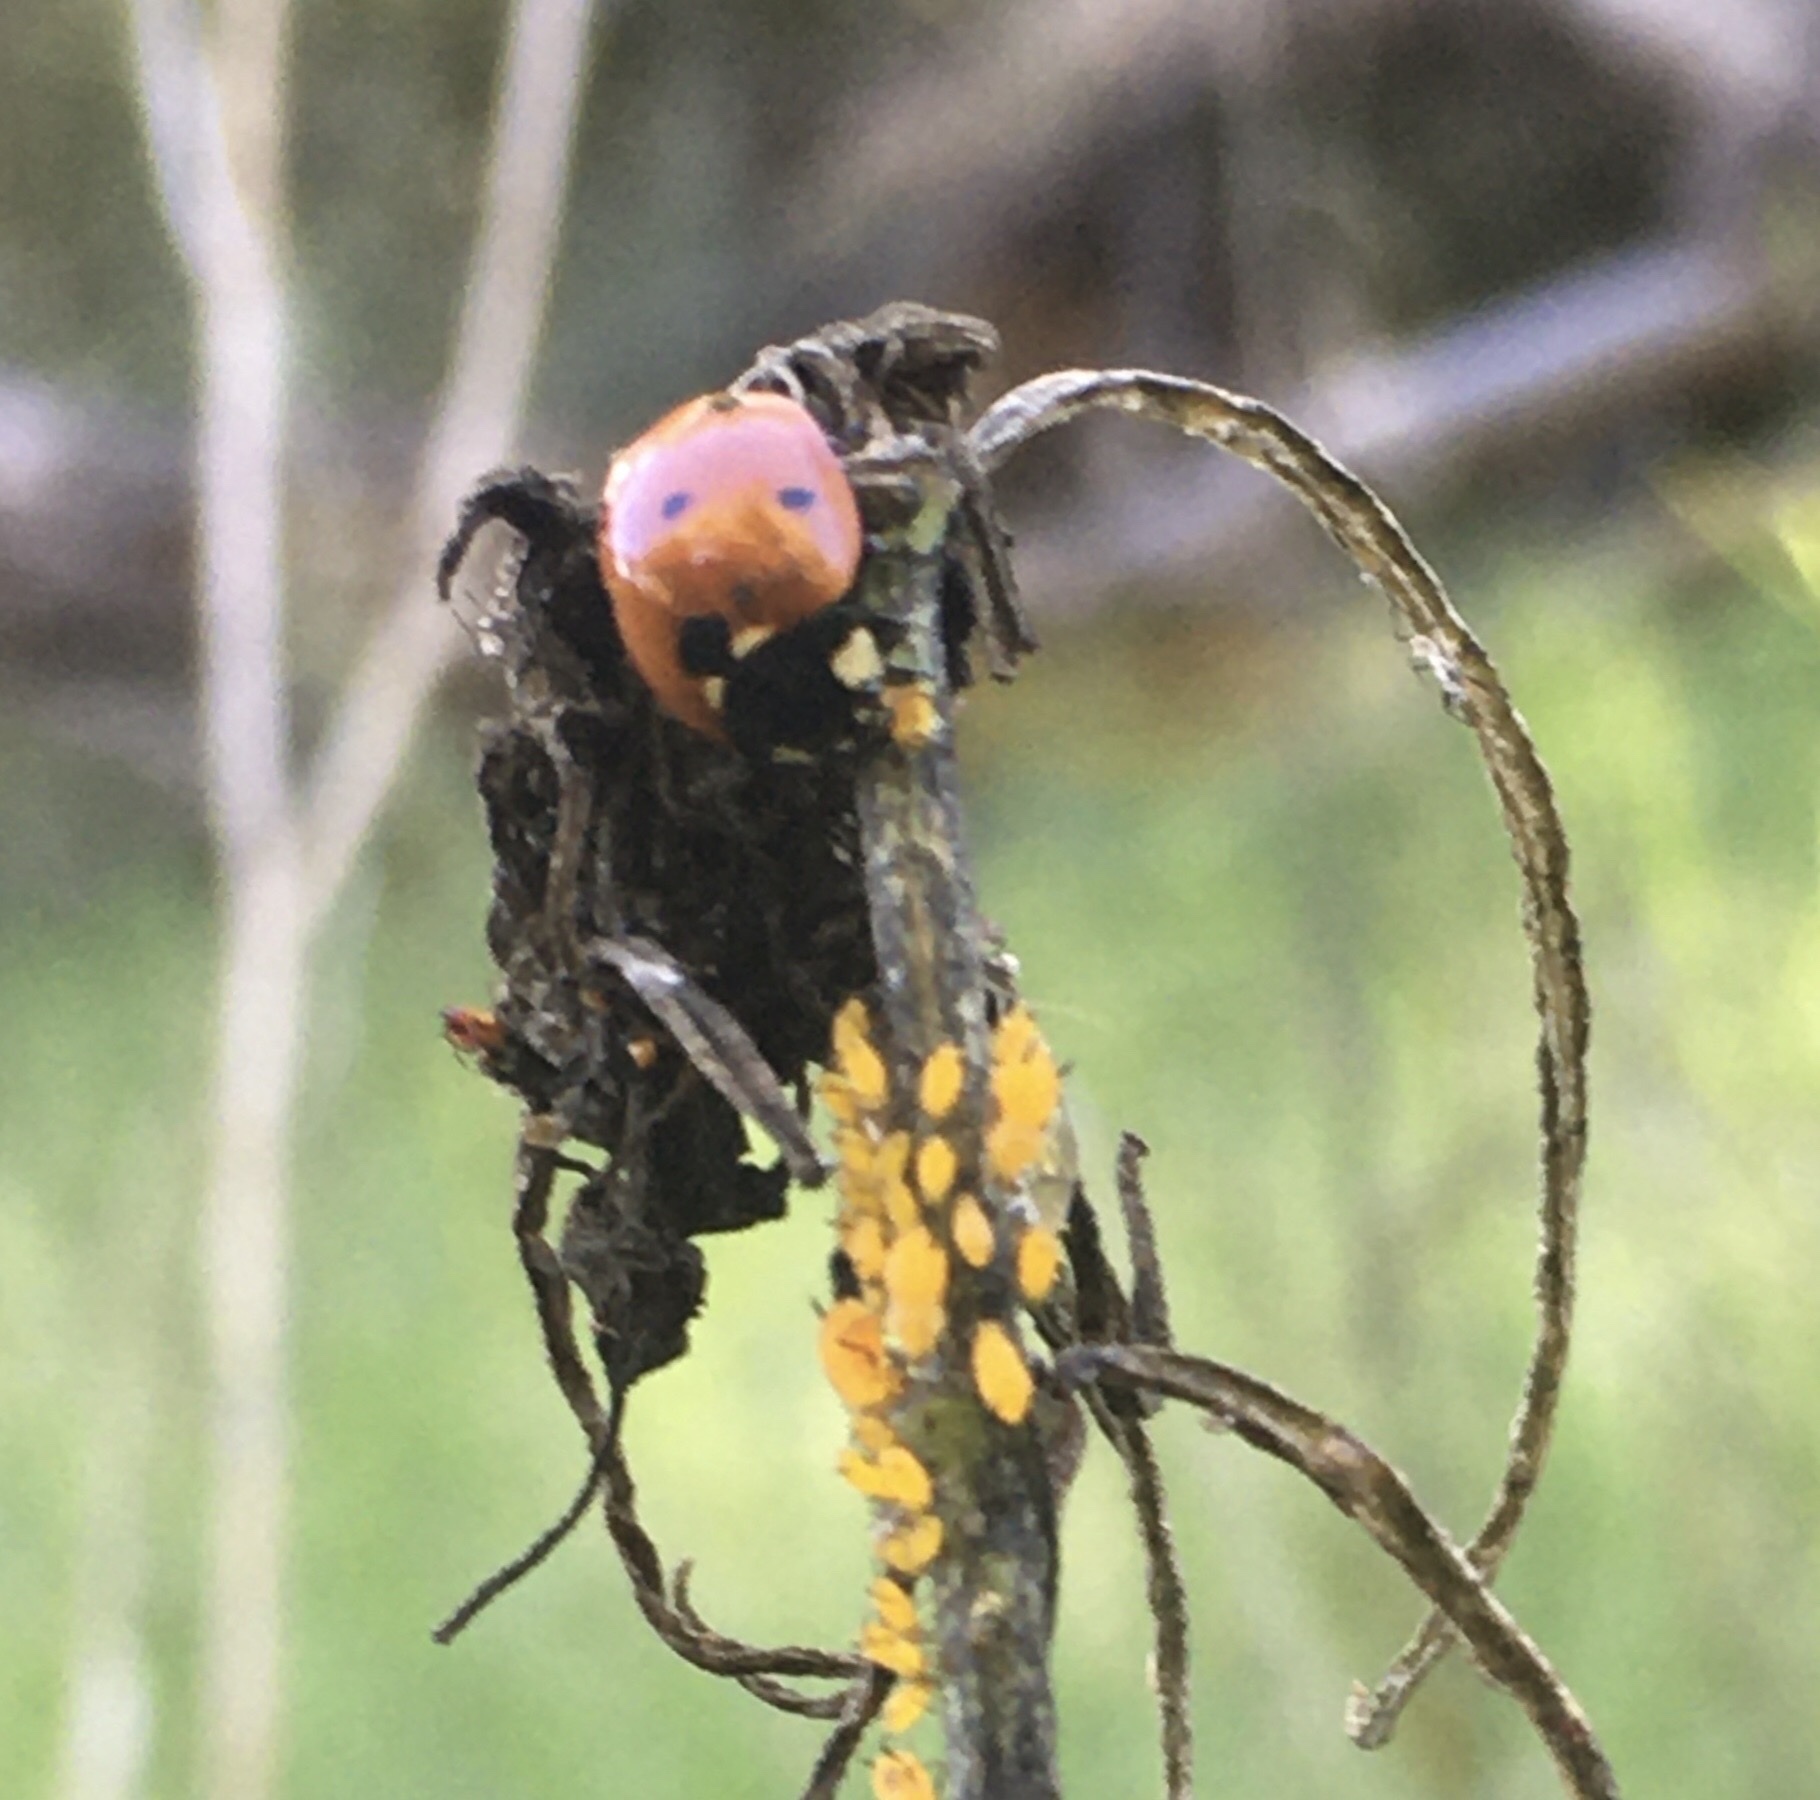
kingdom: Animalia
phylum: Arthropoda
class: Insecta
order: Coleoptera
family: Coccinellidae
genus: Coccinella
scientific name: Coccinella septempunctata
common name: Sevenspotted lady beetle
